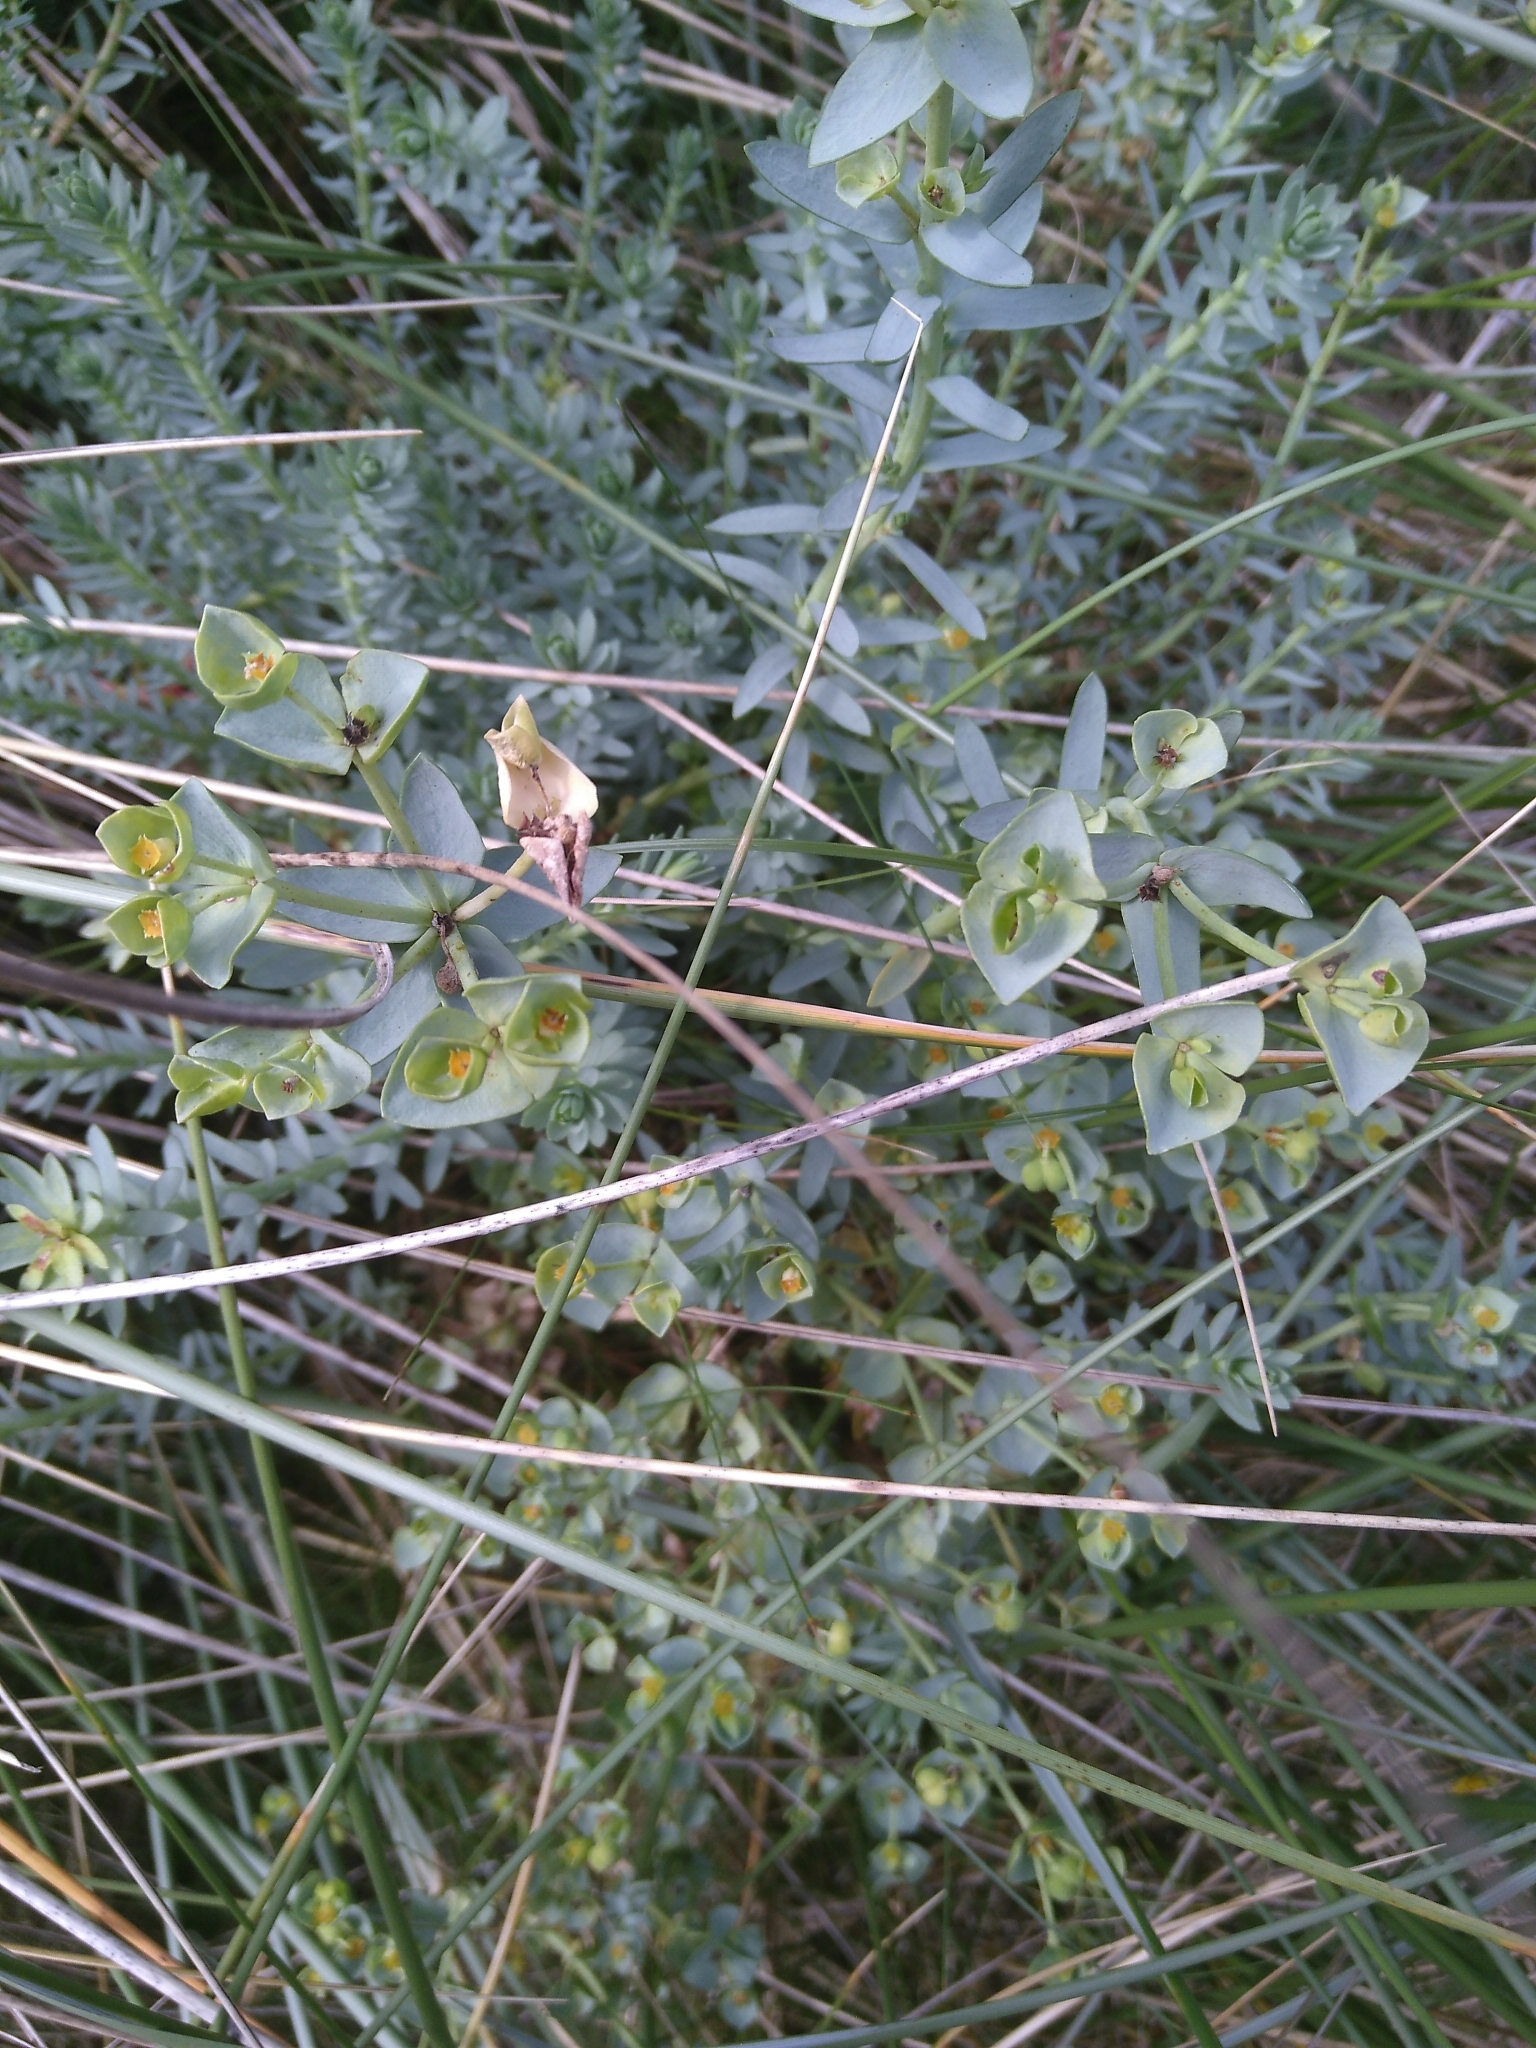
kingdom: Plantae
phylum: Tracheophyta
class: Magnoliopsida
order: Malpighiales
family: Euphorbiaceae
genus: Euphorbia
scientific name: Euphorbia paralias
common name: Sea spurge
